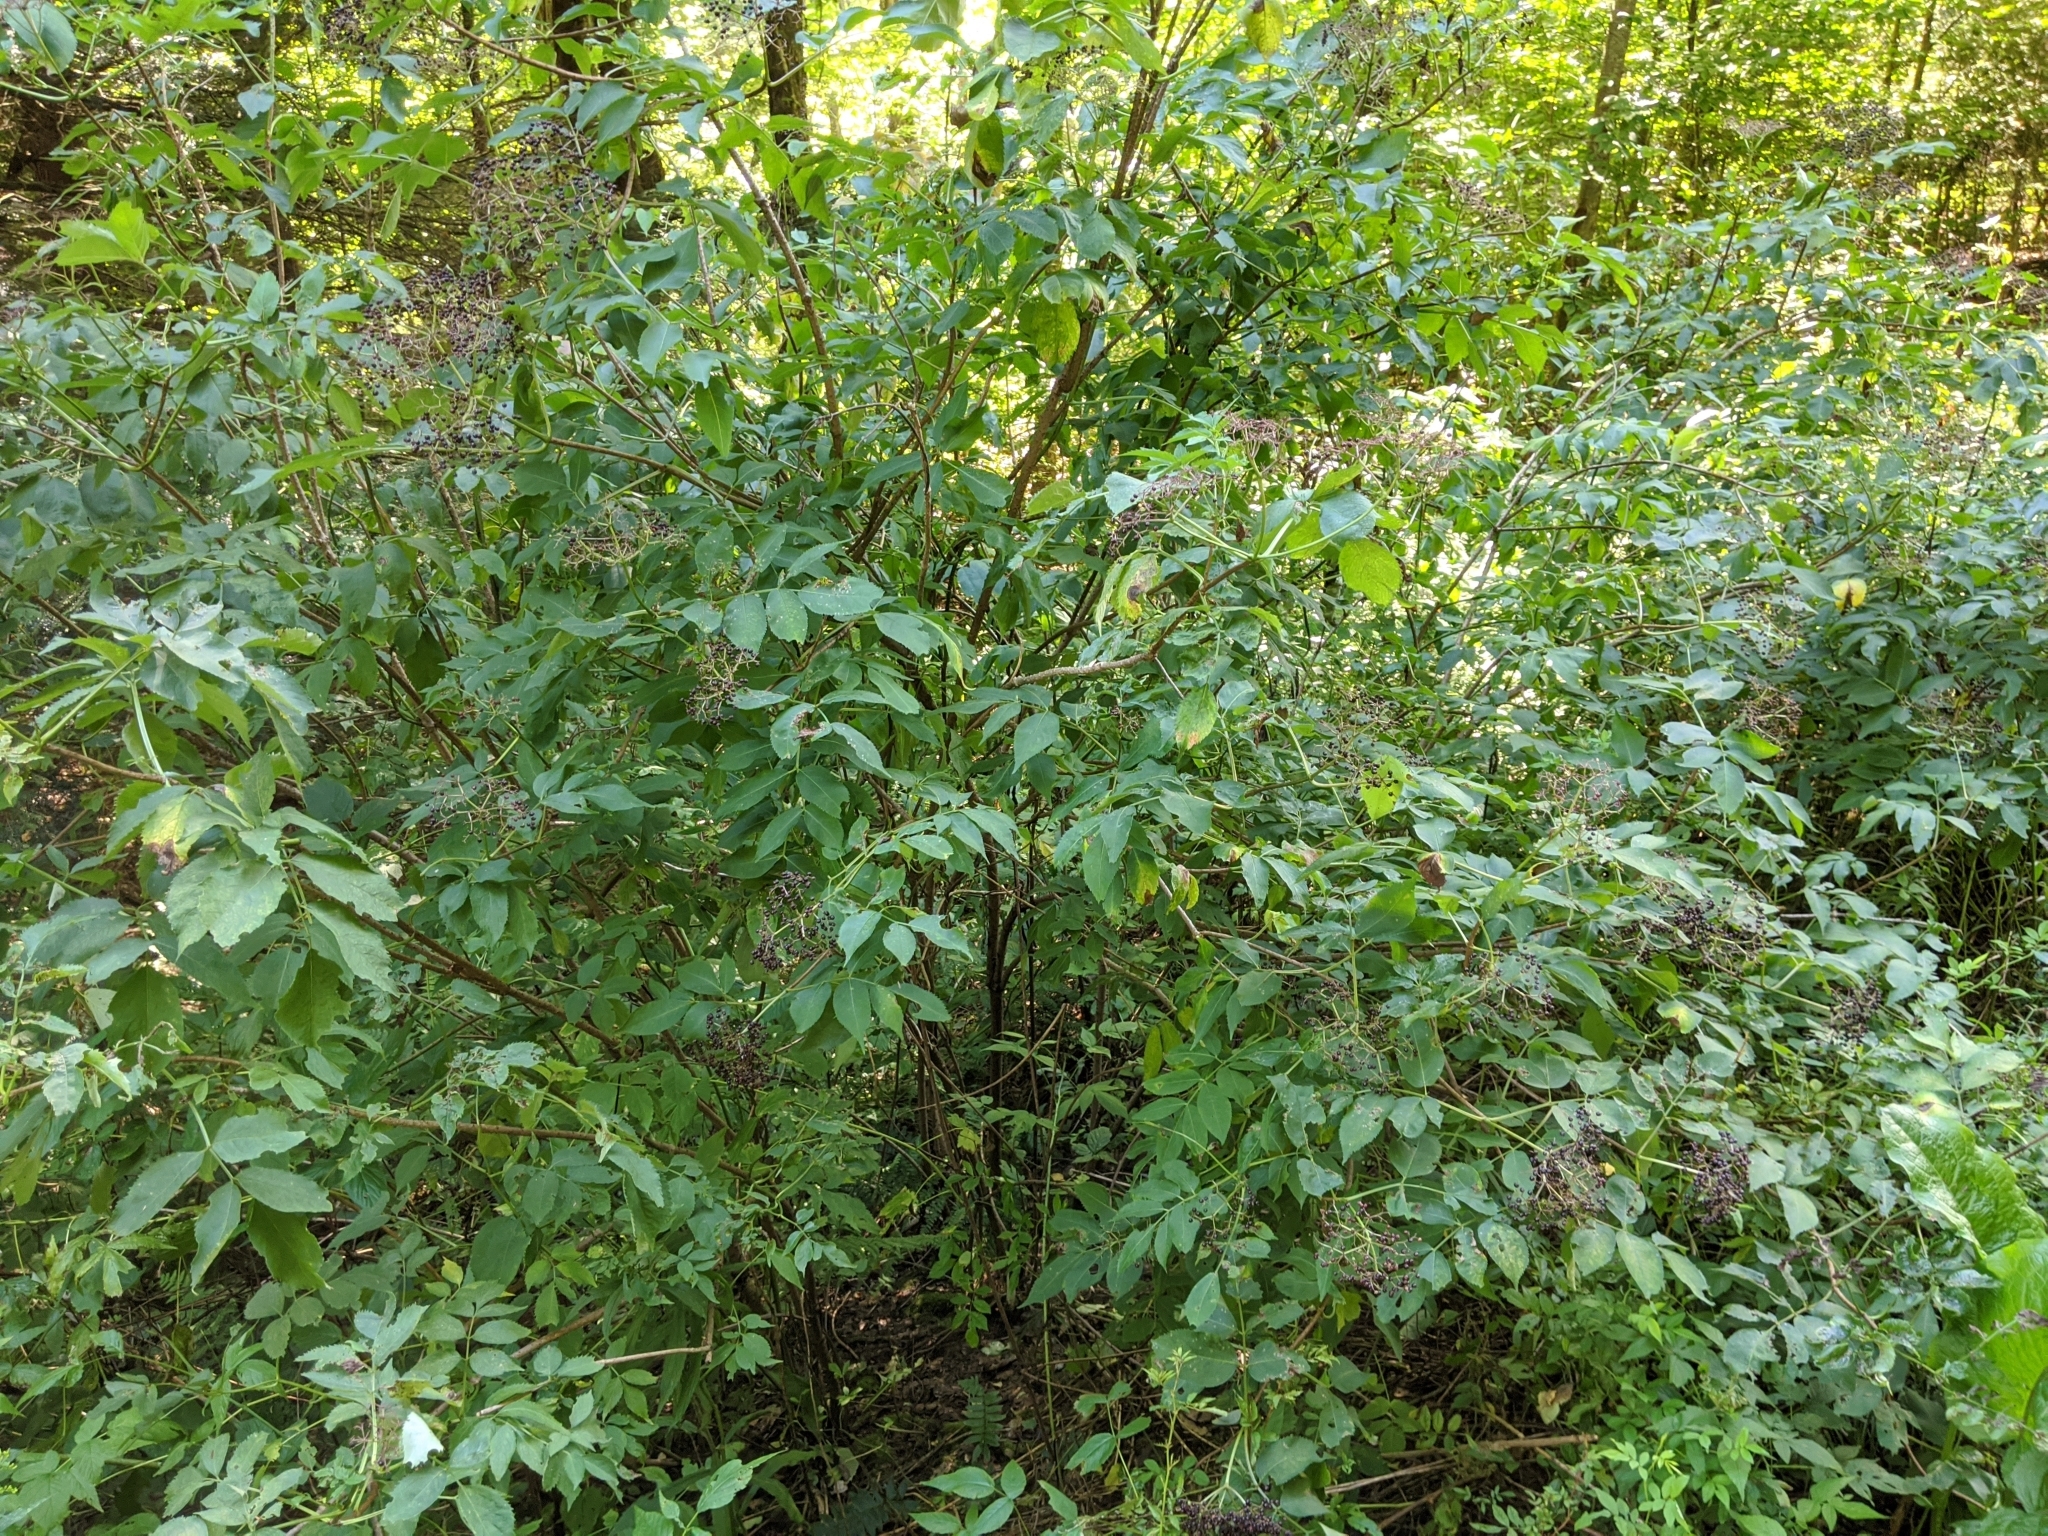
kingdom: Plantae
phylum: Tracheophyta
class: Magnoliopsida
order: Dipsacales
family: Viburnaceae
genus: Sambucus
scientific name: Sambucus canadensis
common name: American elder
